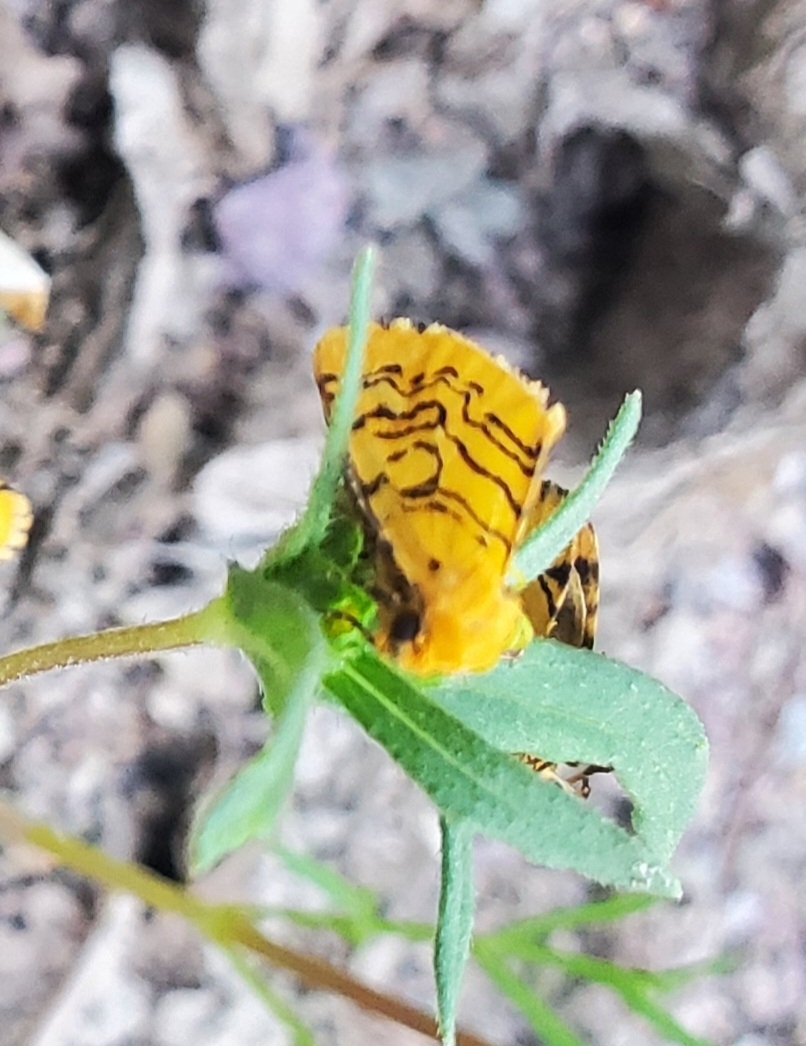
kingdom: Animalia
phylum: Arthropoda
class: Insecta
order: Lepidoptera
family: Noctuidae
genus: Chrysoecia
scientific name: Chrysoecia atrolinea
